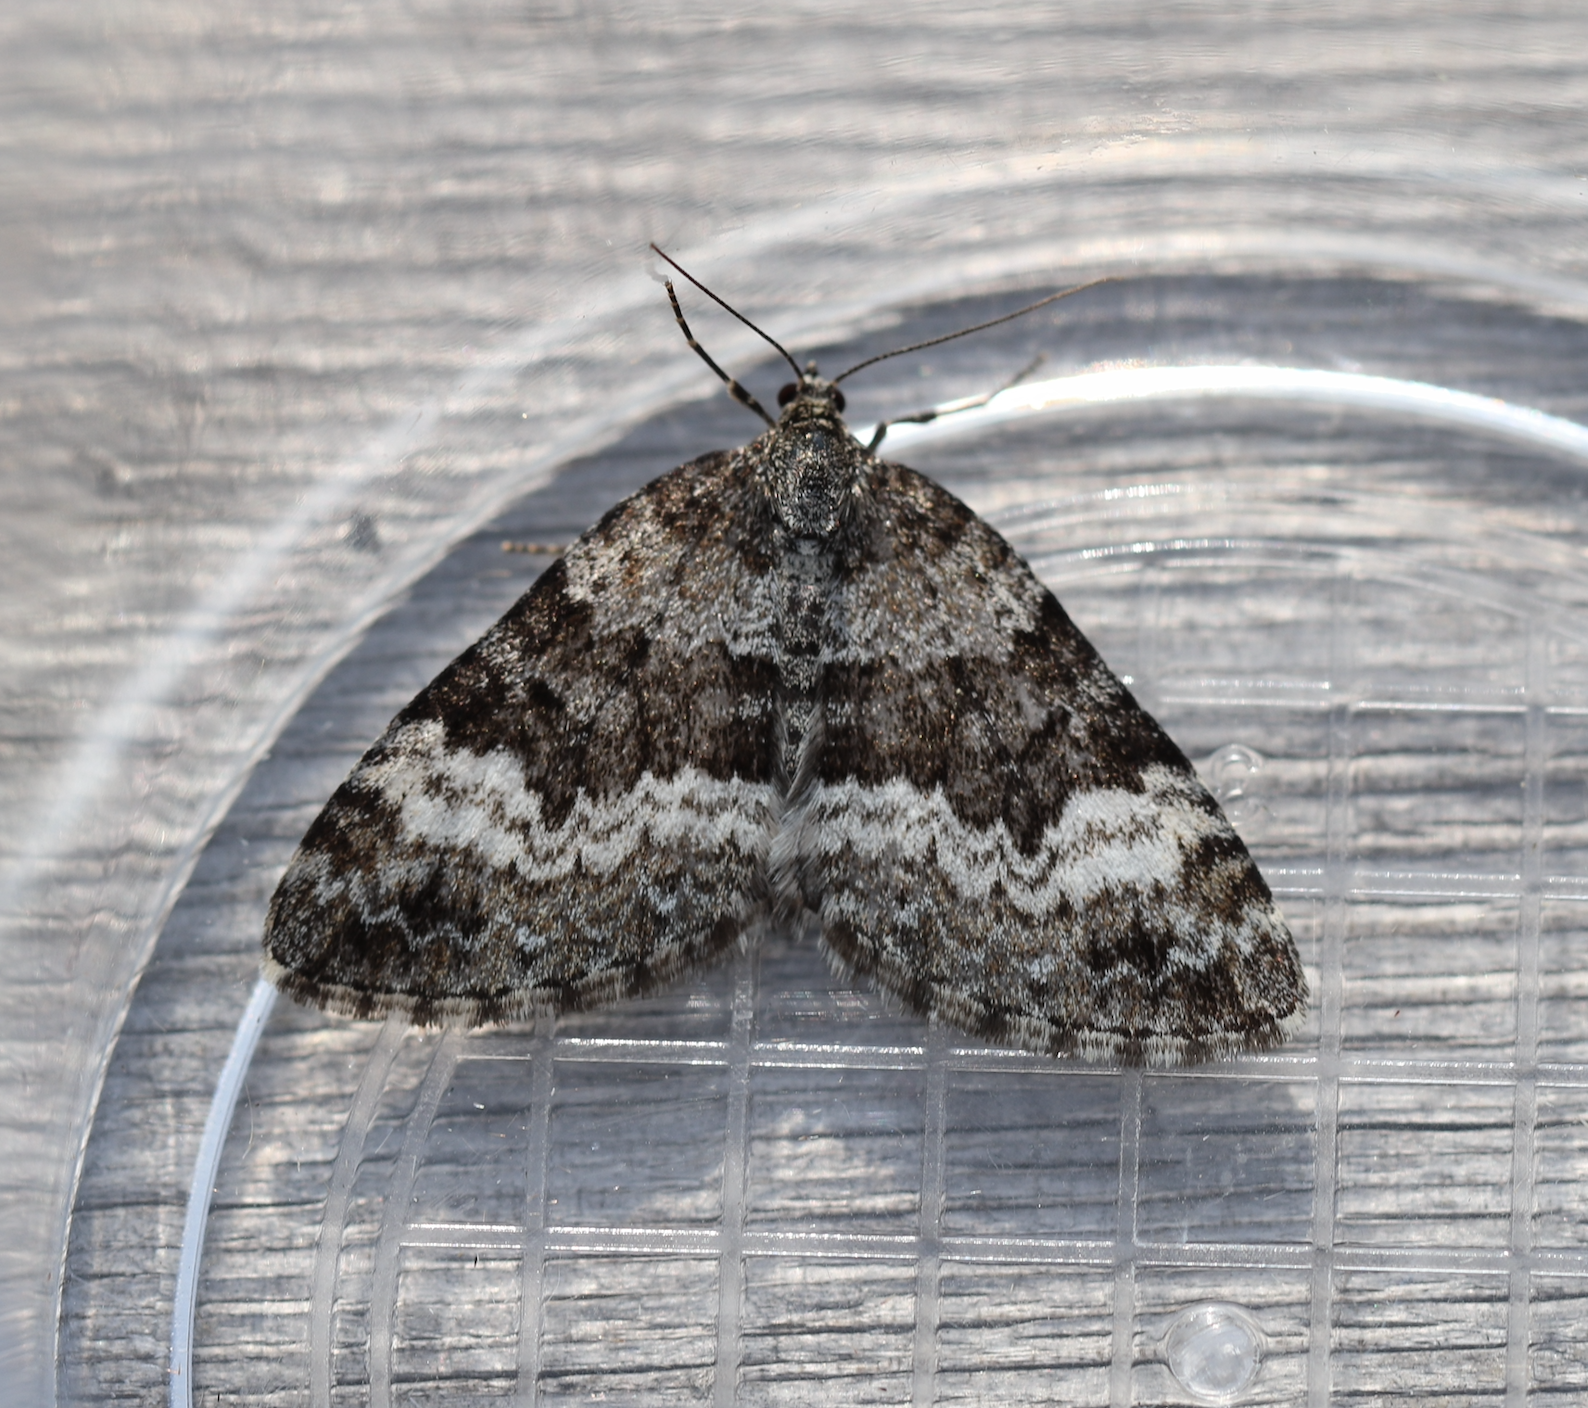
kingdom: Animalia
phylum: Arthropoda
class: Insecta
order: Lepidoptera
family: Geometridae
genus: Colostygia
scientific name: Colostygia turbata
